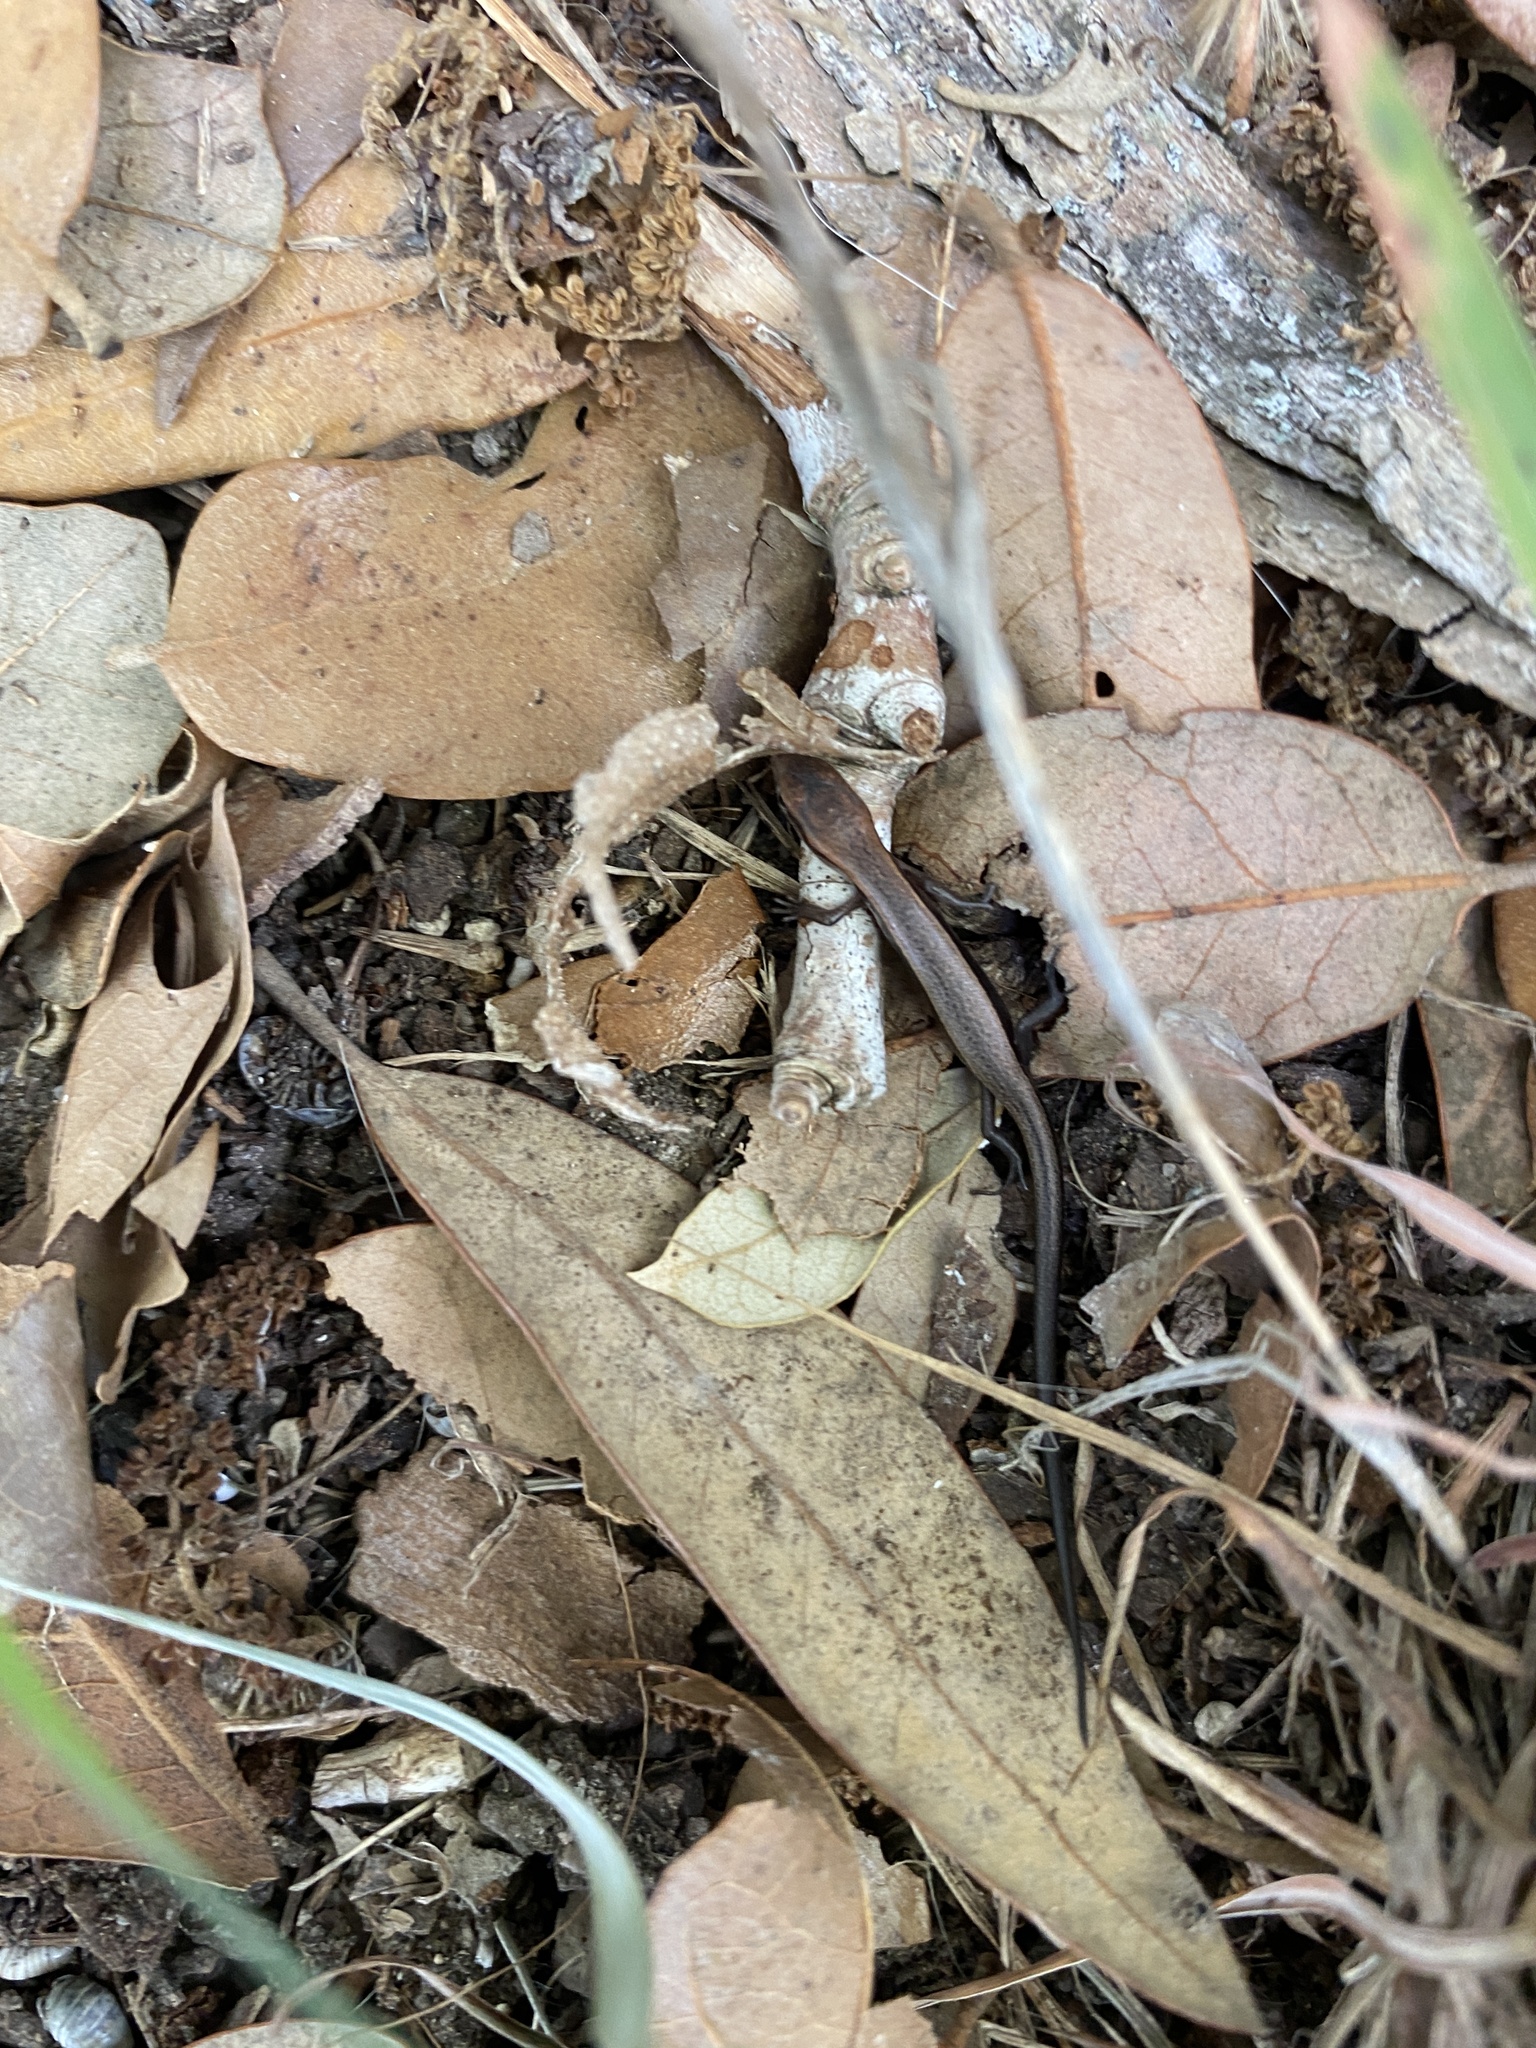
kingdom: Animalia
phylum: Chordata
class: Squamata
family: Scincidae
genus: Scincella
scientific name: Scincella lateralis
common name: Ground skink
